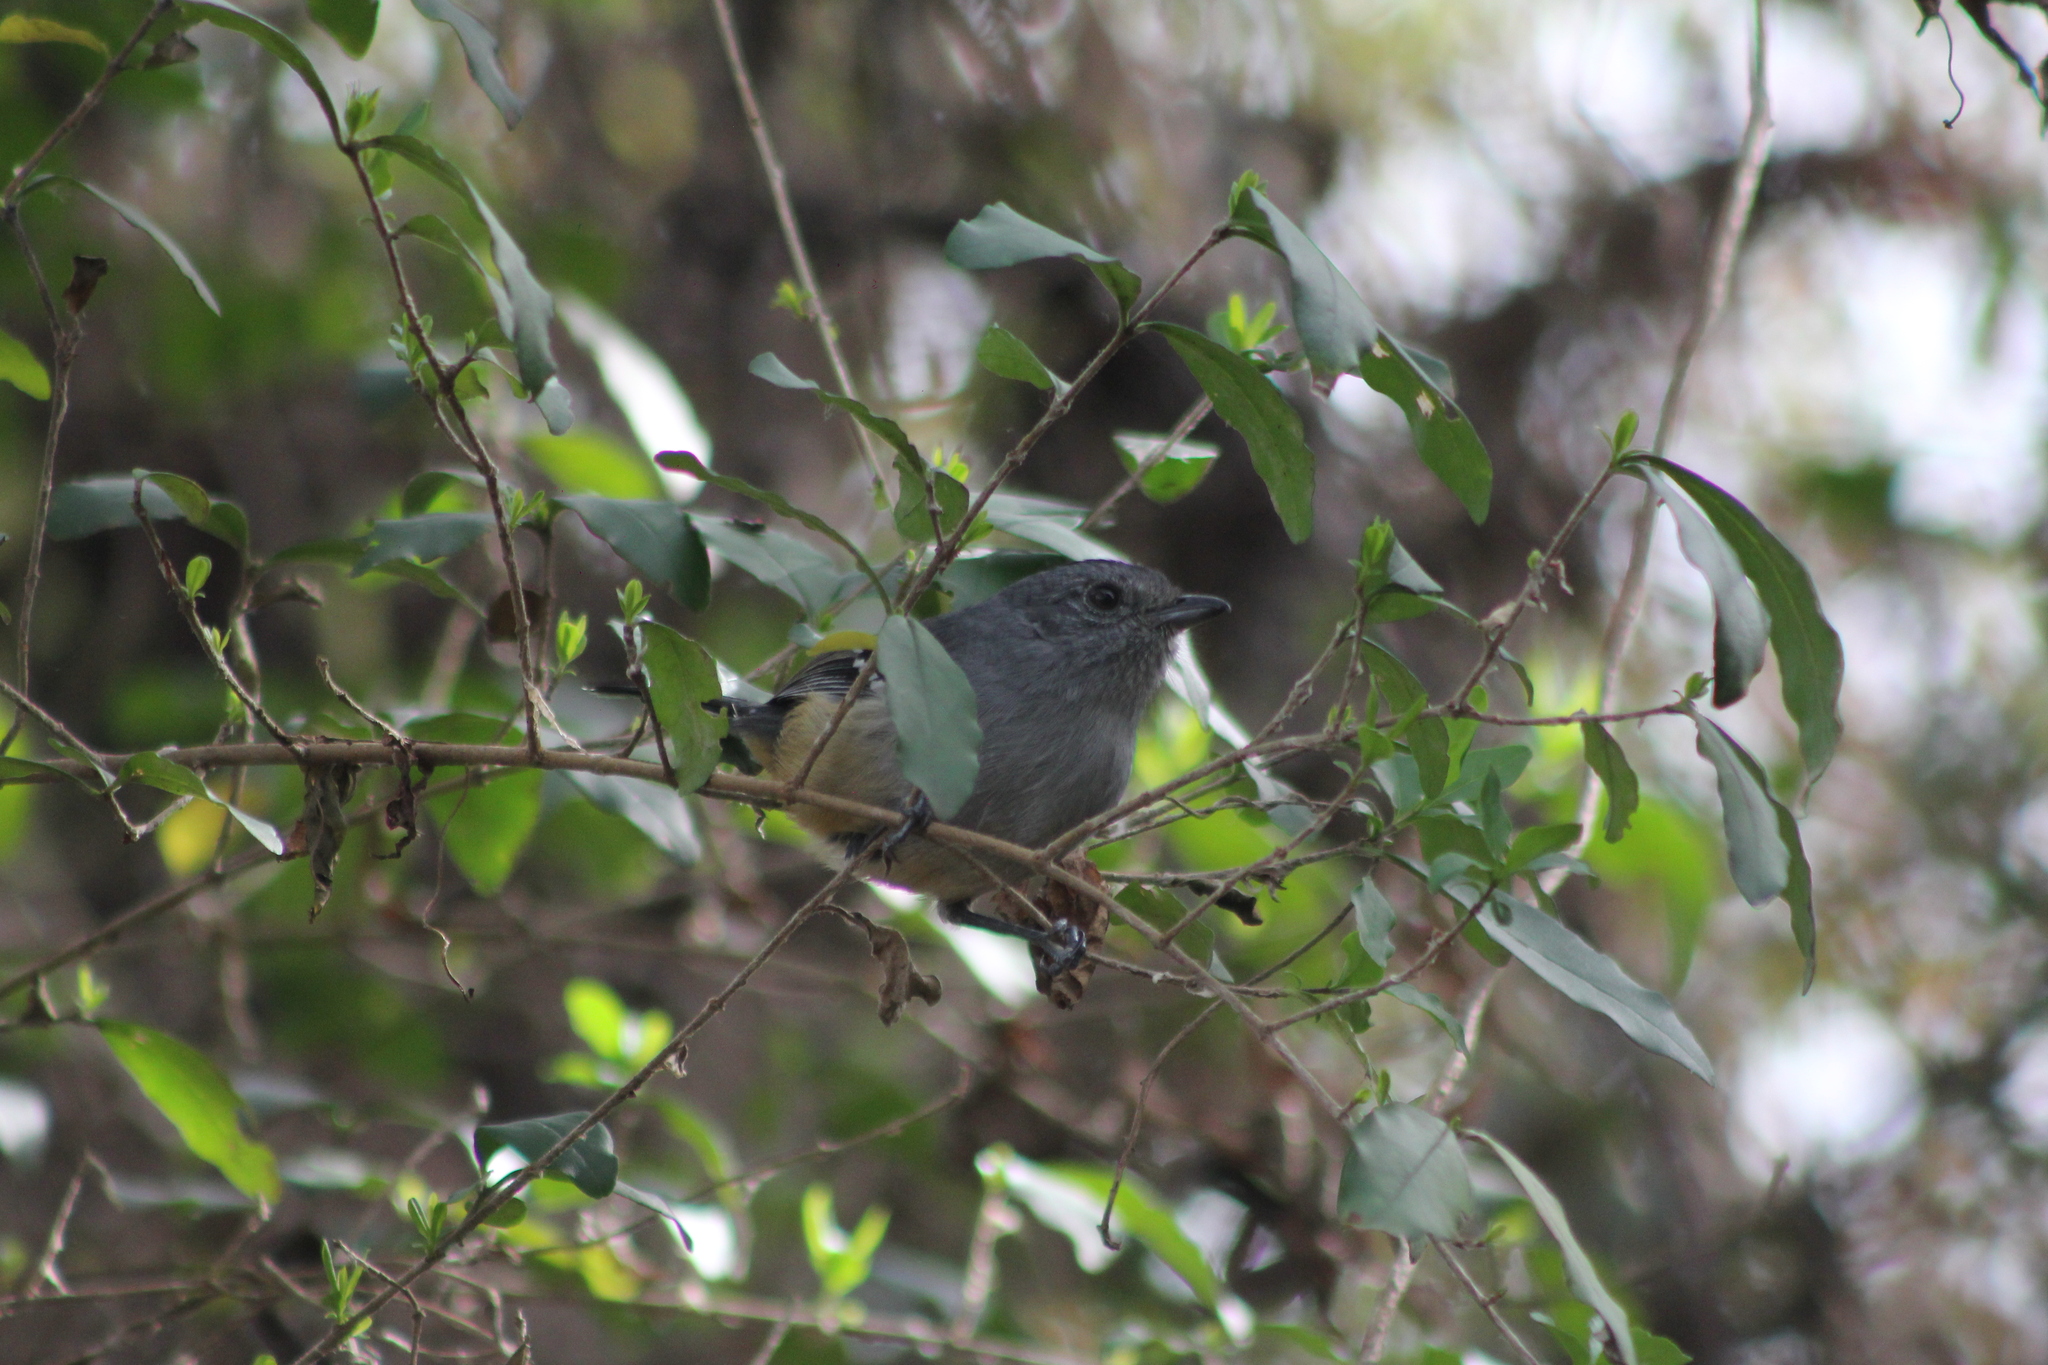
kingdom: Animalia
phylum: Chordata
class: Aves
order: Passeriformes
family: Thamnophilidae
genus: Thamnophilus
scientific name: Thamnophilus caerulescens
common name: Variable antshrike
